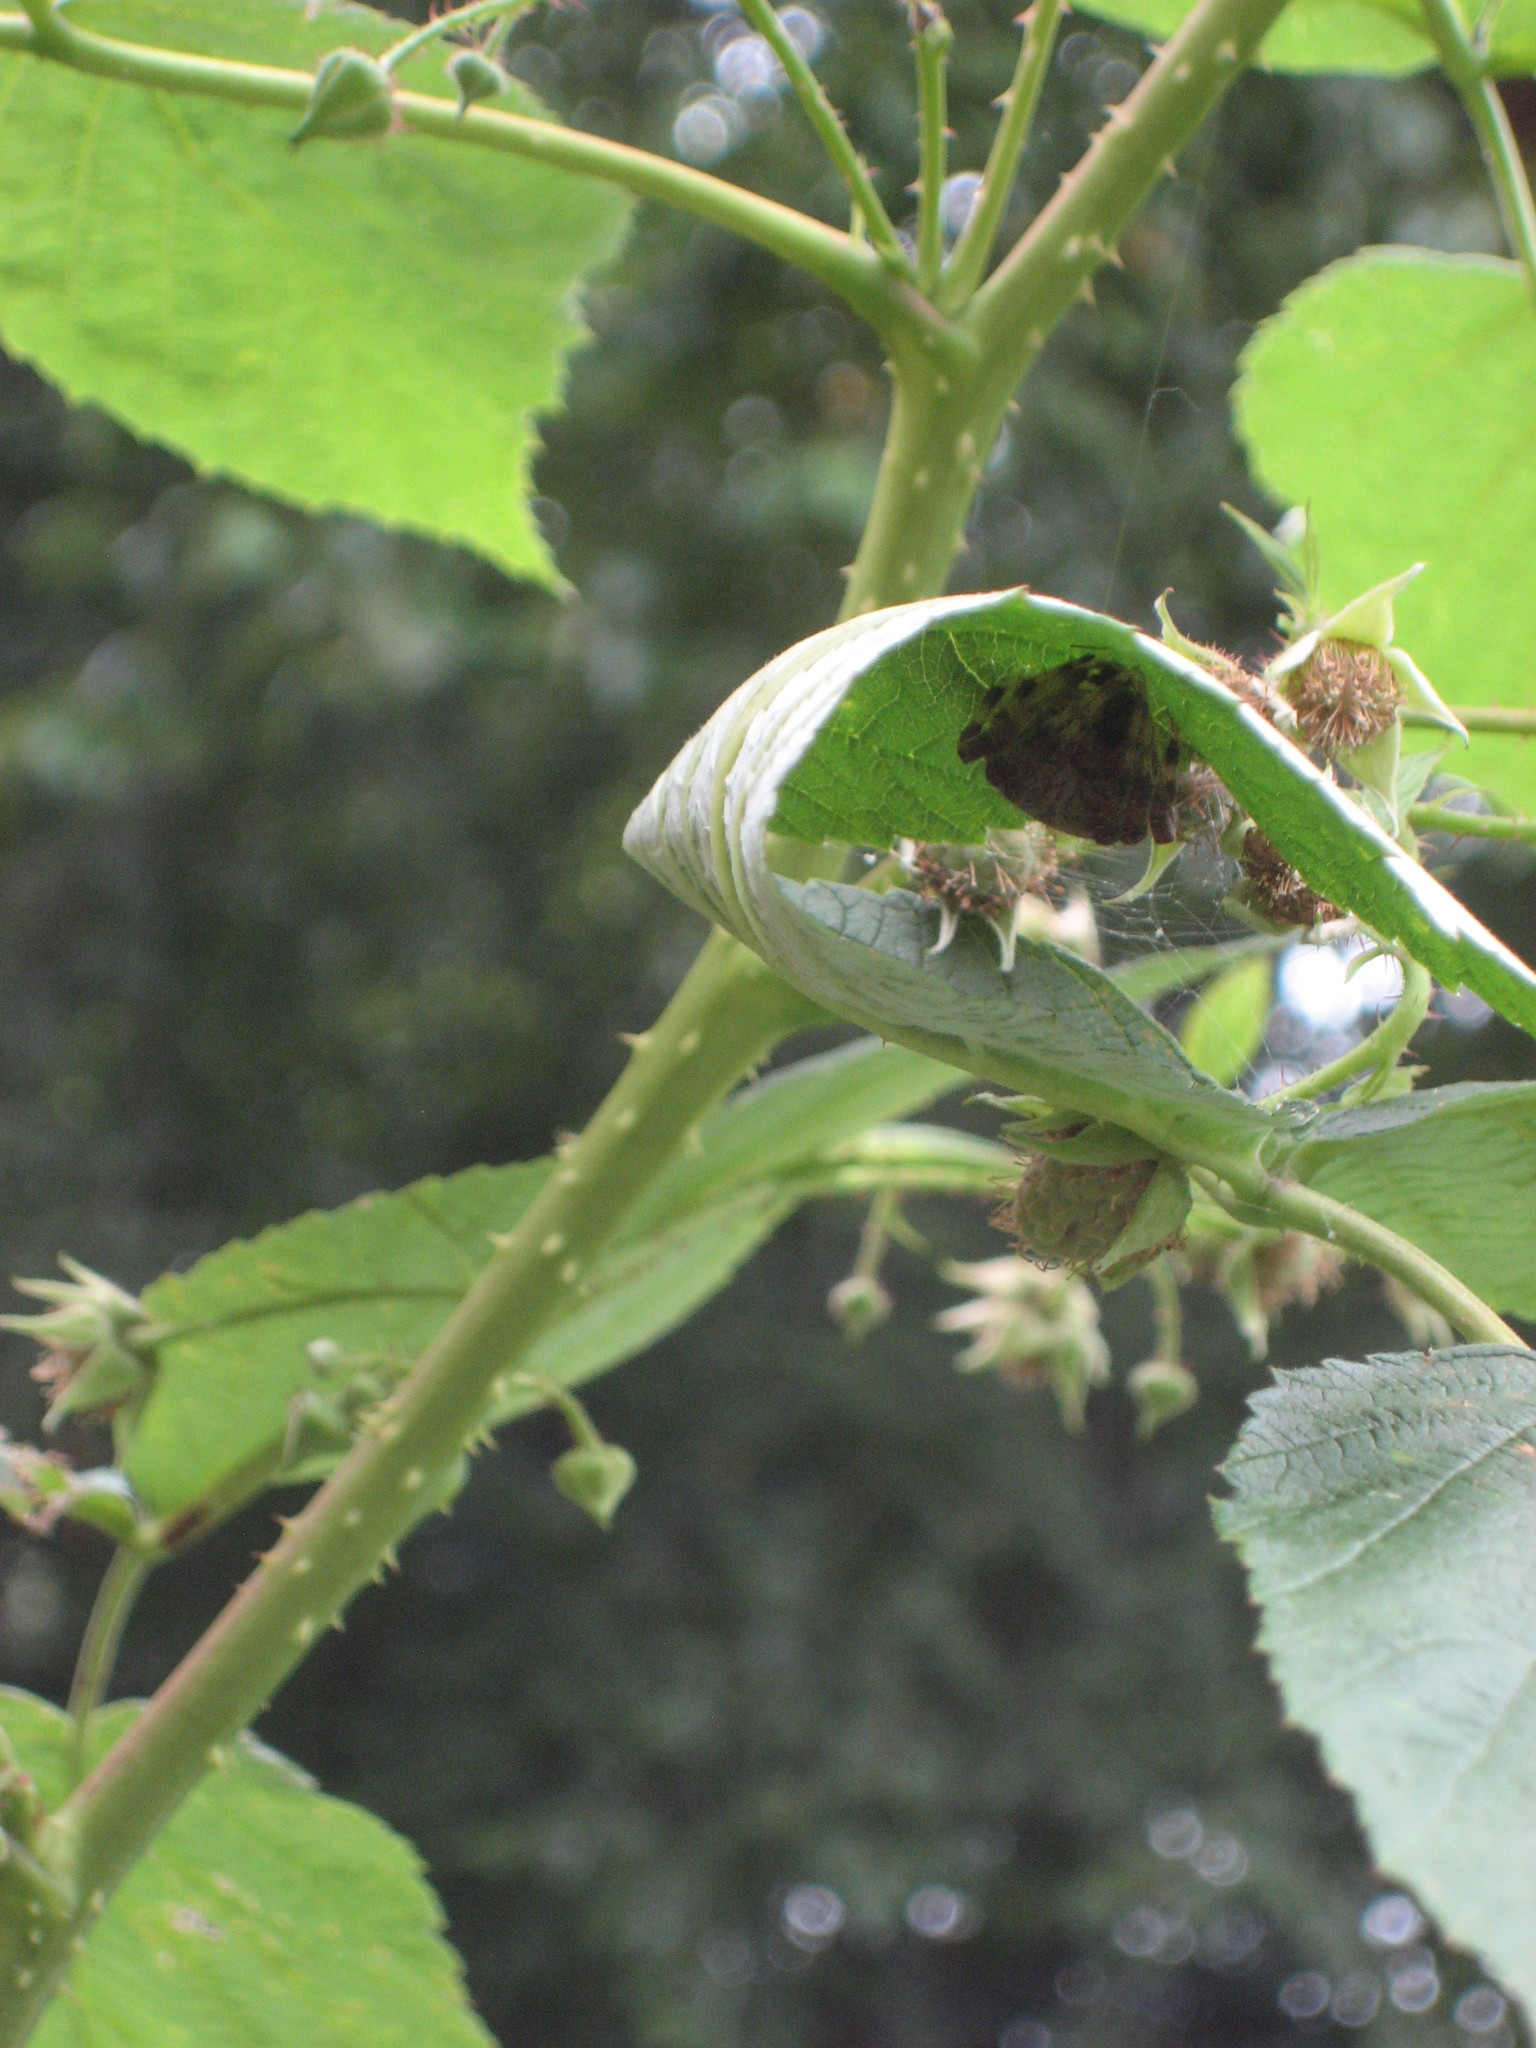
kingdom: Animalia
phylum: Arthropoda
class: Arachnida
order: Araneae
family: Araneidae
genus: Neoscona
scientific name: Neoscona crucifera
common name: Spotted orbweaver
